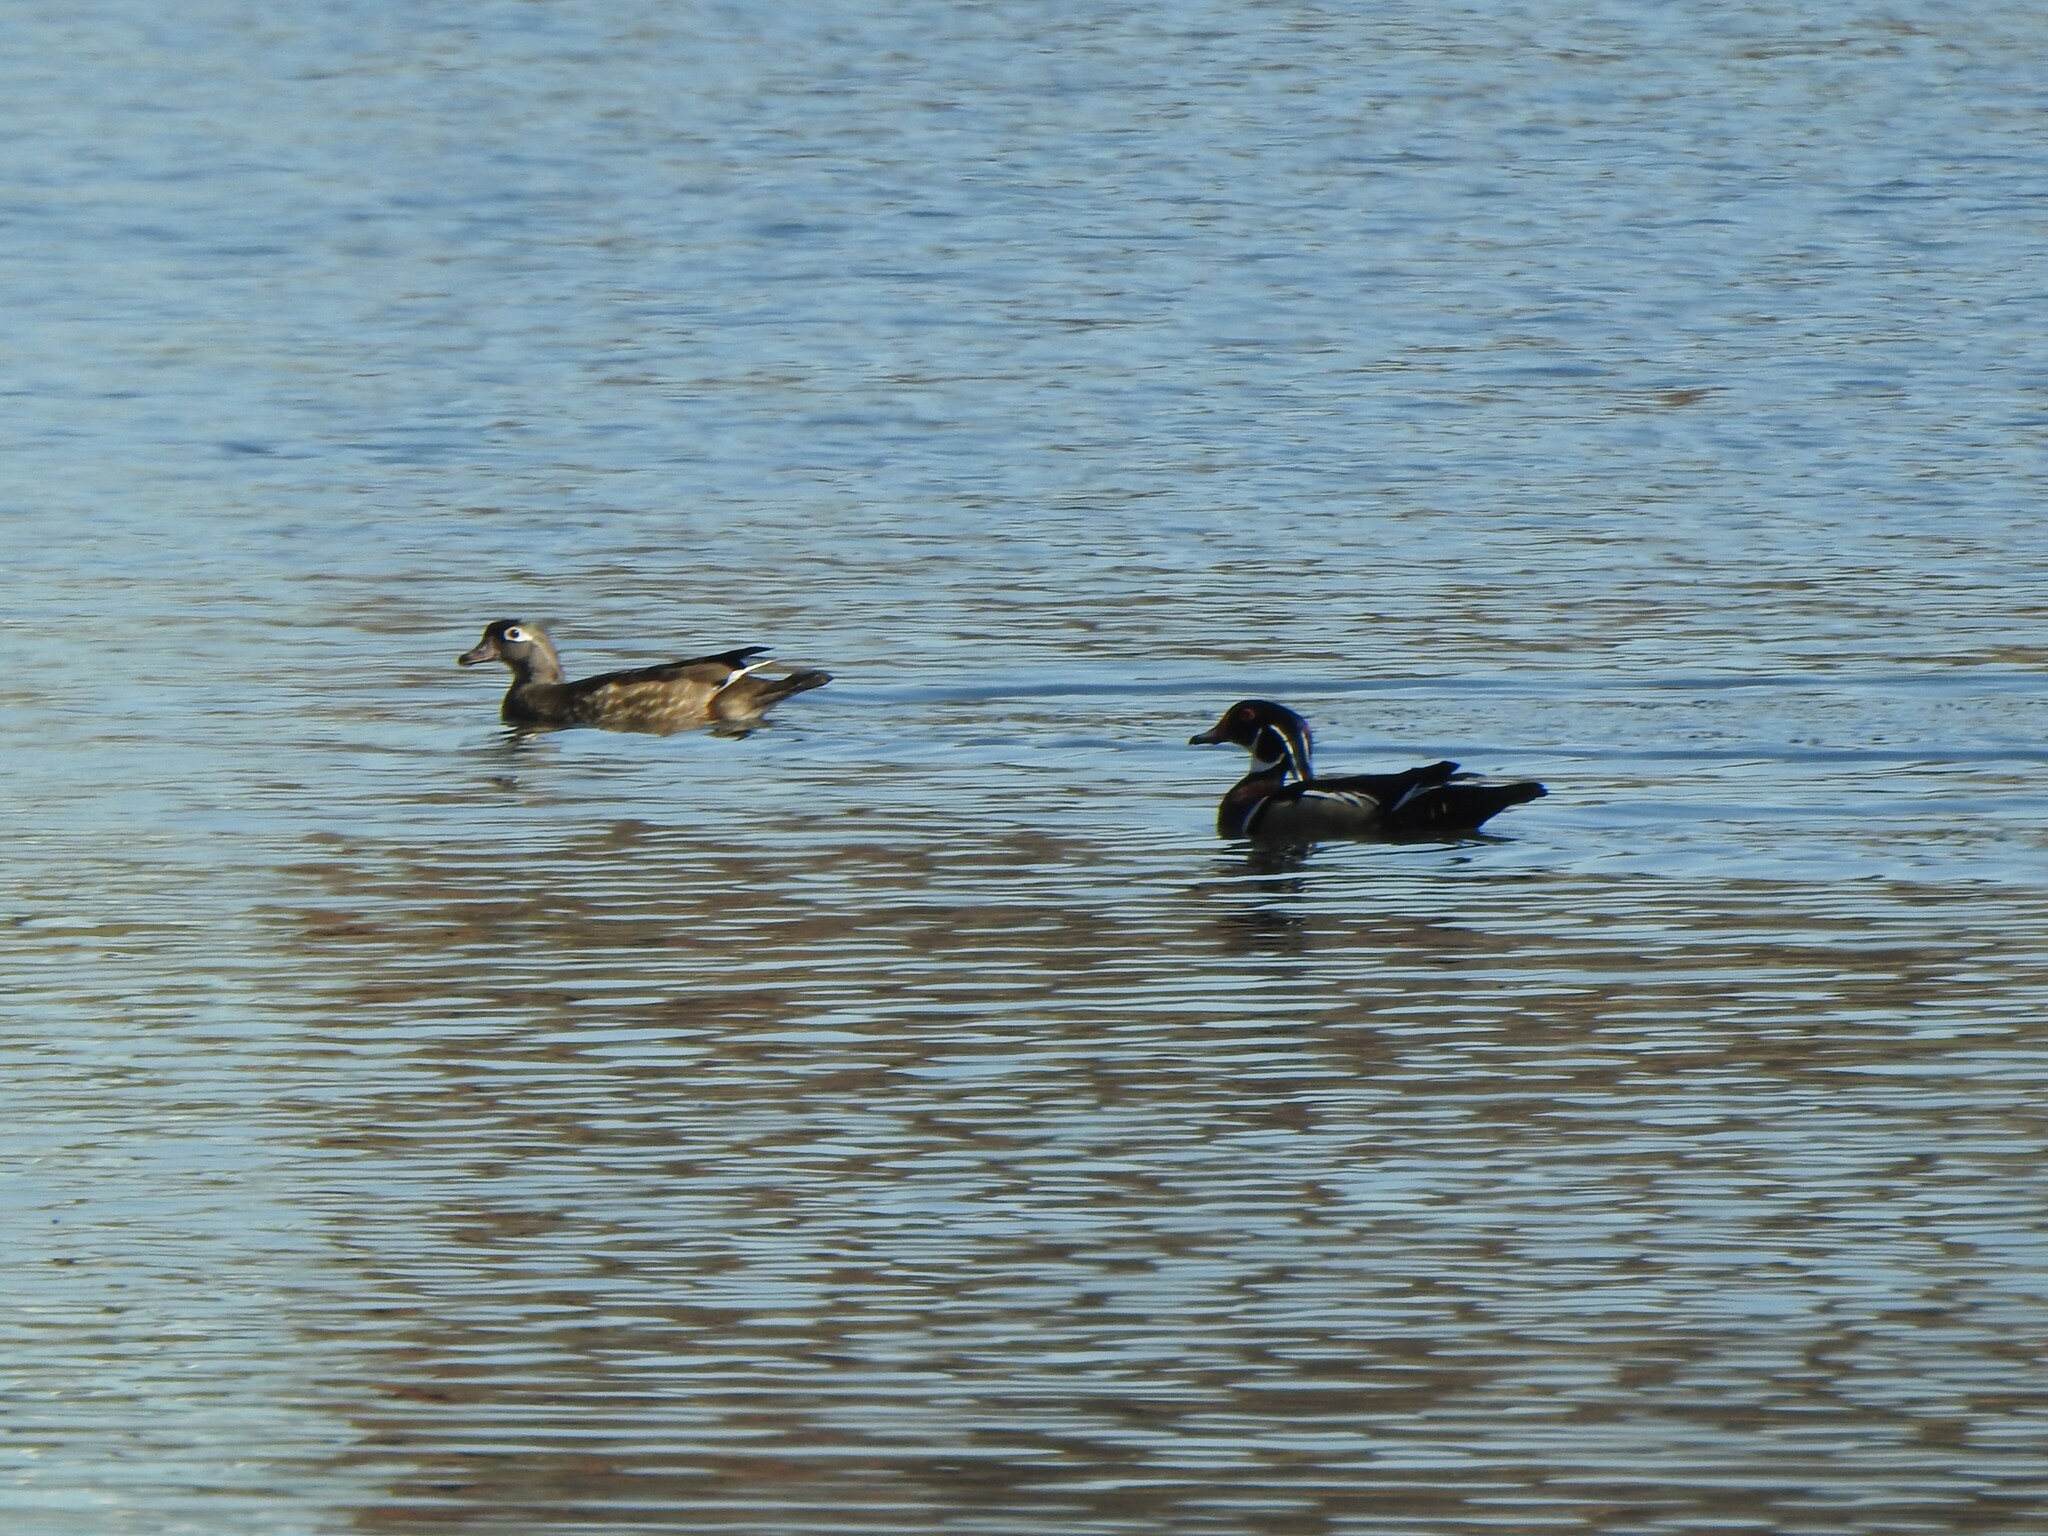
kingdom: Animalia
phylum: Chordata
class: Aves
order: Anseriformes
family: Anatidae
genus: Aix
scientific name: Aix sponsa
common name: Wood duck
